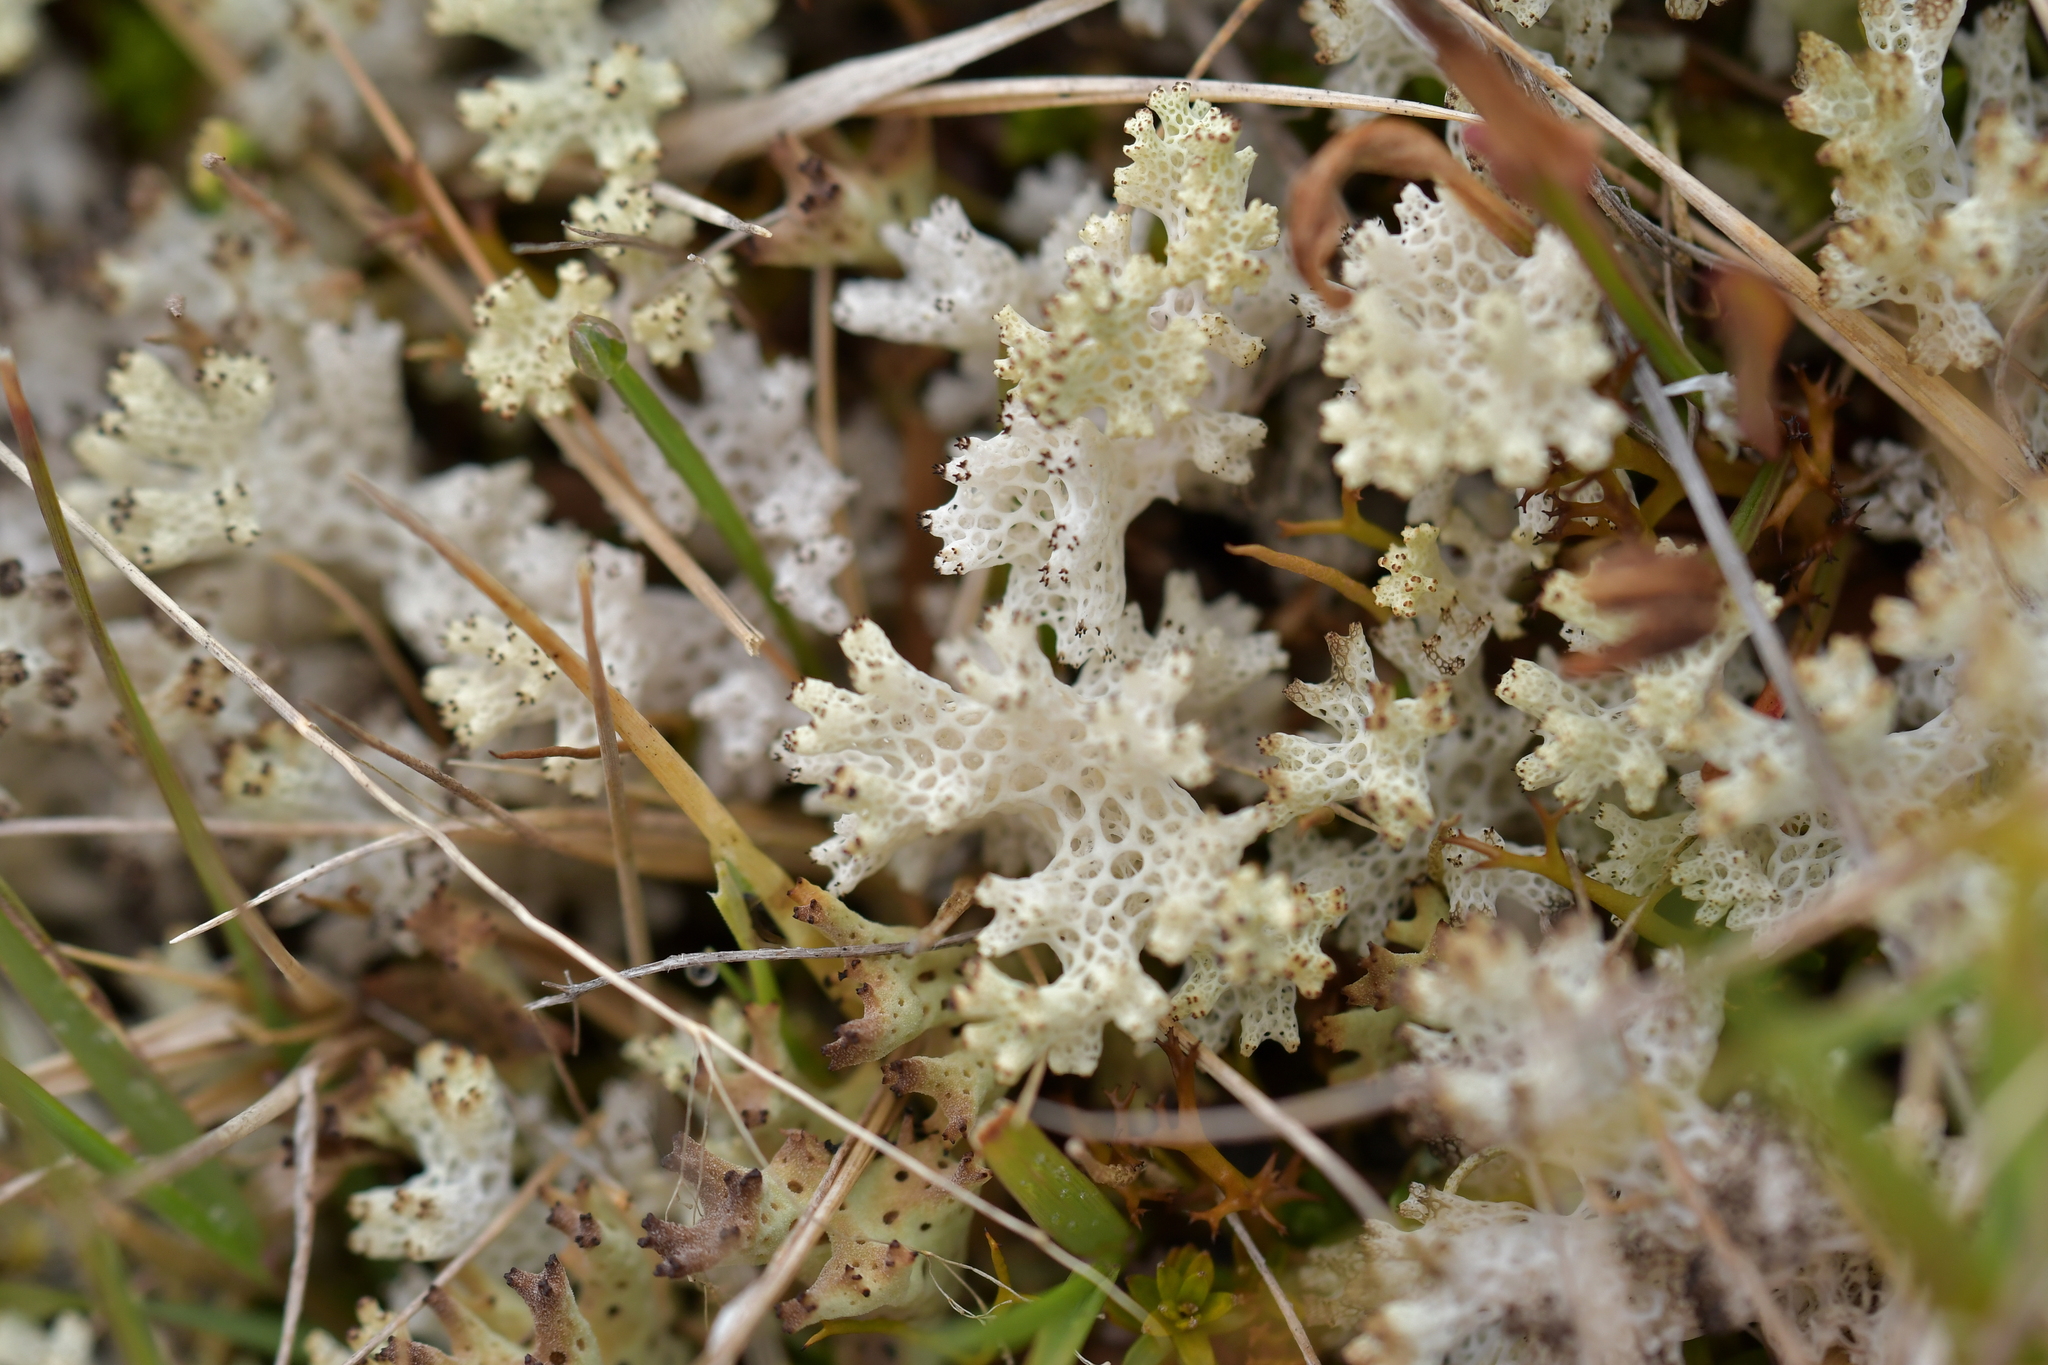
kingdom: Fungi
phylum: Ascomycota
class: Lecanoromycetes
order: Lecanorales
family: Cladoniaceae
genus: Pulchrocladia
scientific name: Pulchrocladia retipora
